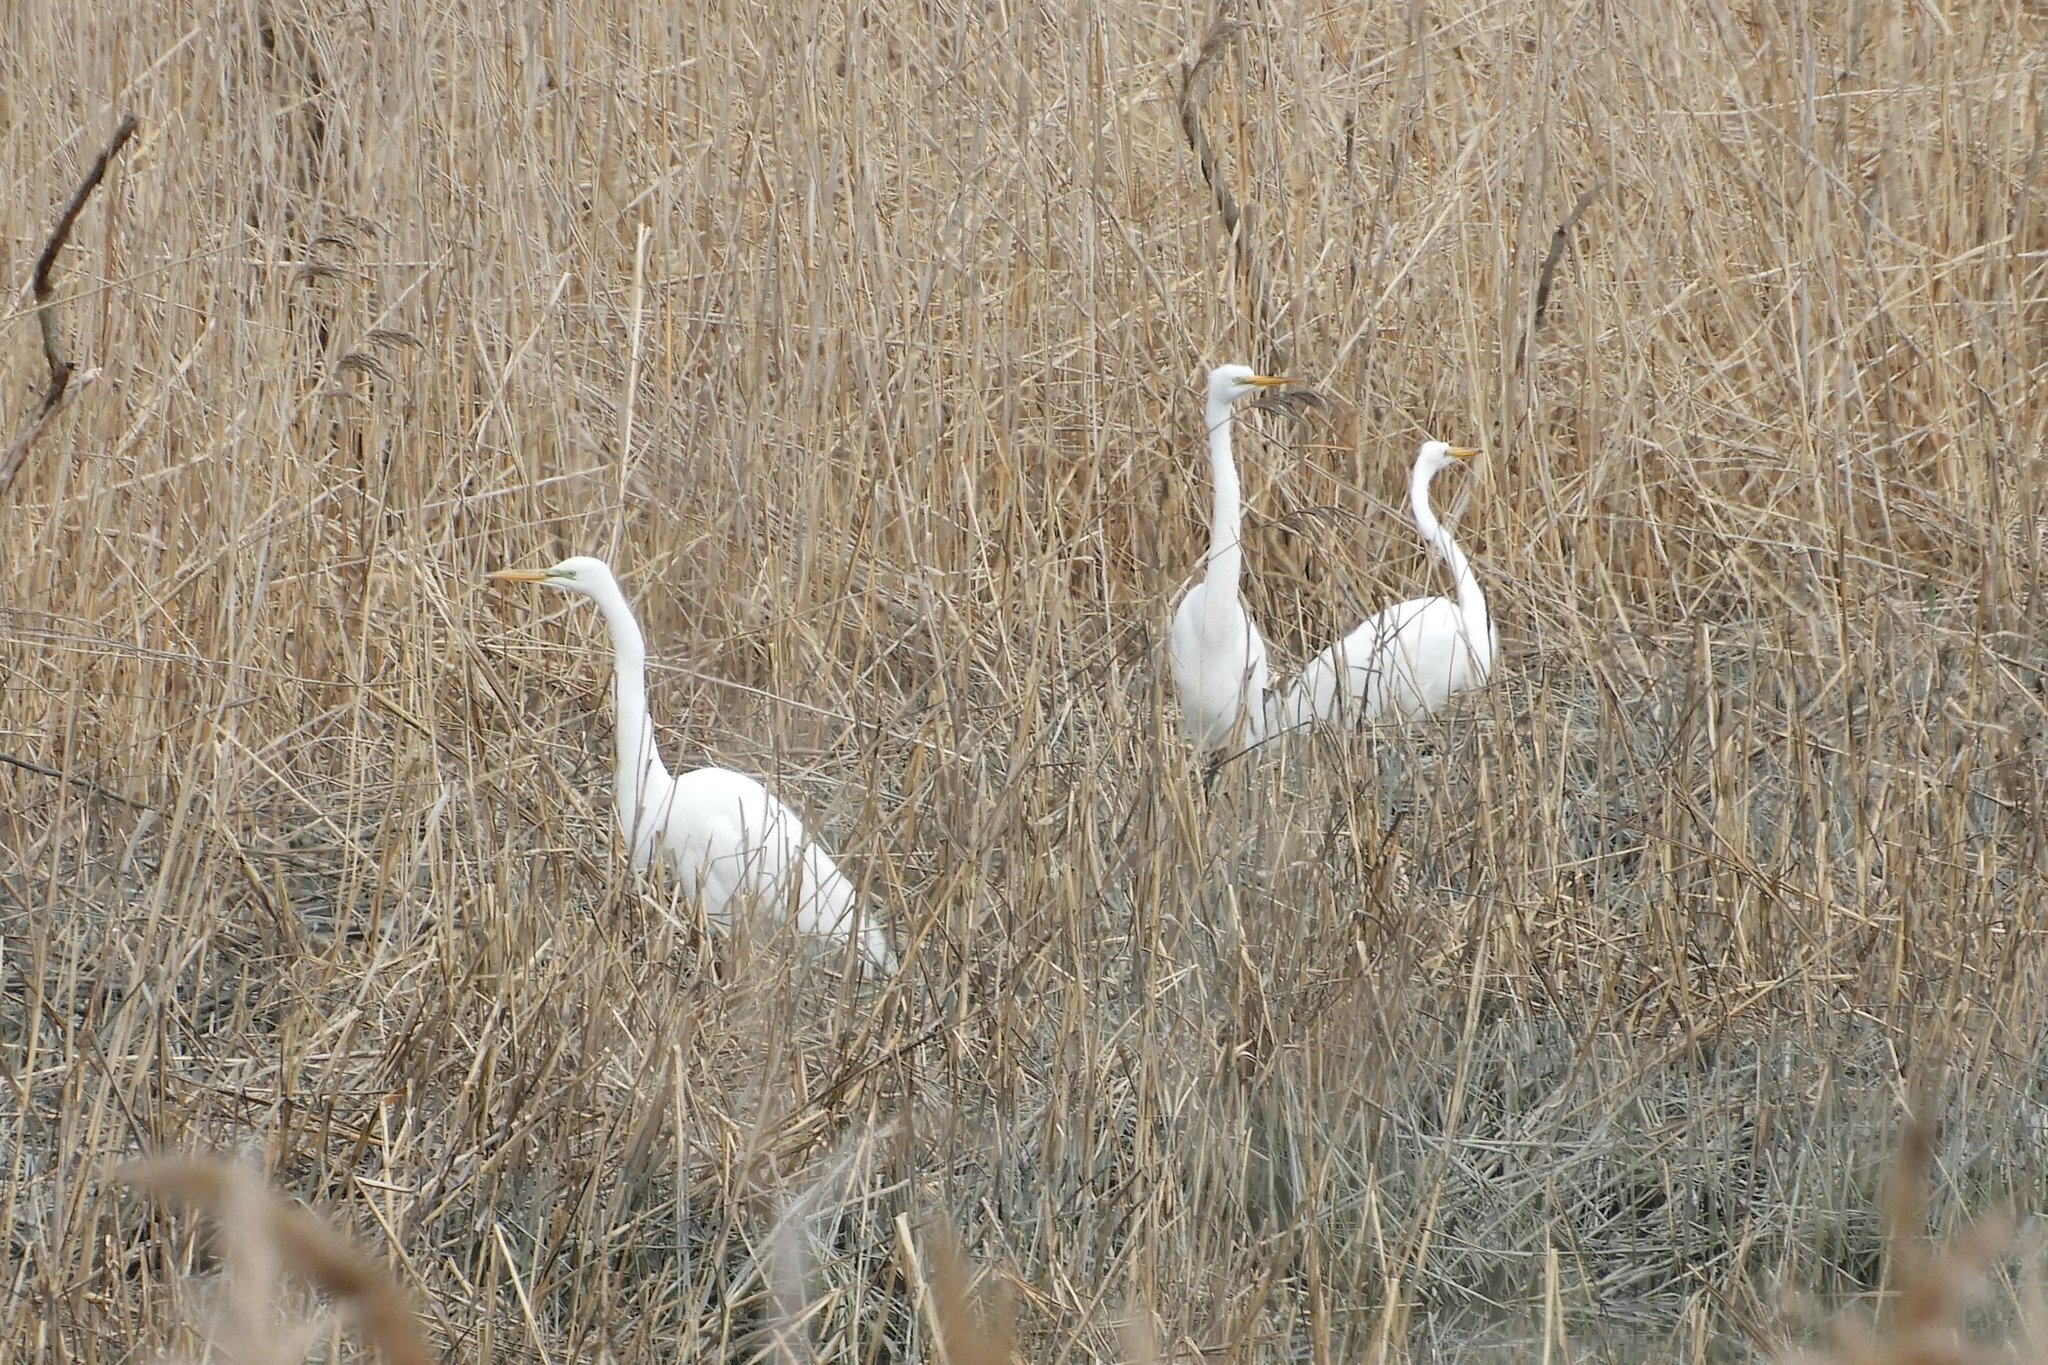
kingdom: Animalia
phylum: Chordata
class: Aves
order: Pelecaniformes
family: Ardeidae
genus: Ardea
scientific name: Ardea alba
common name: Great egret
